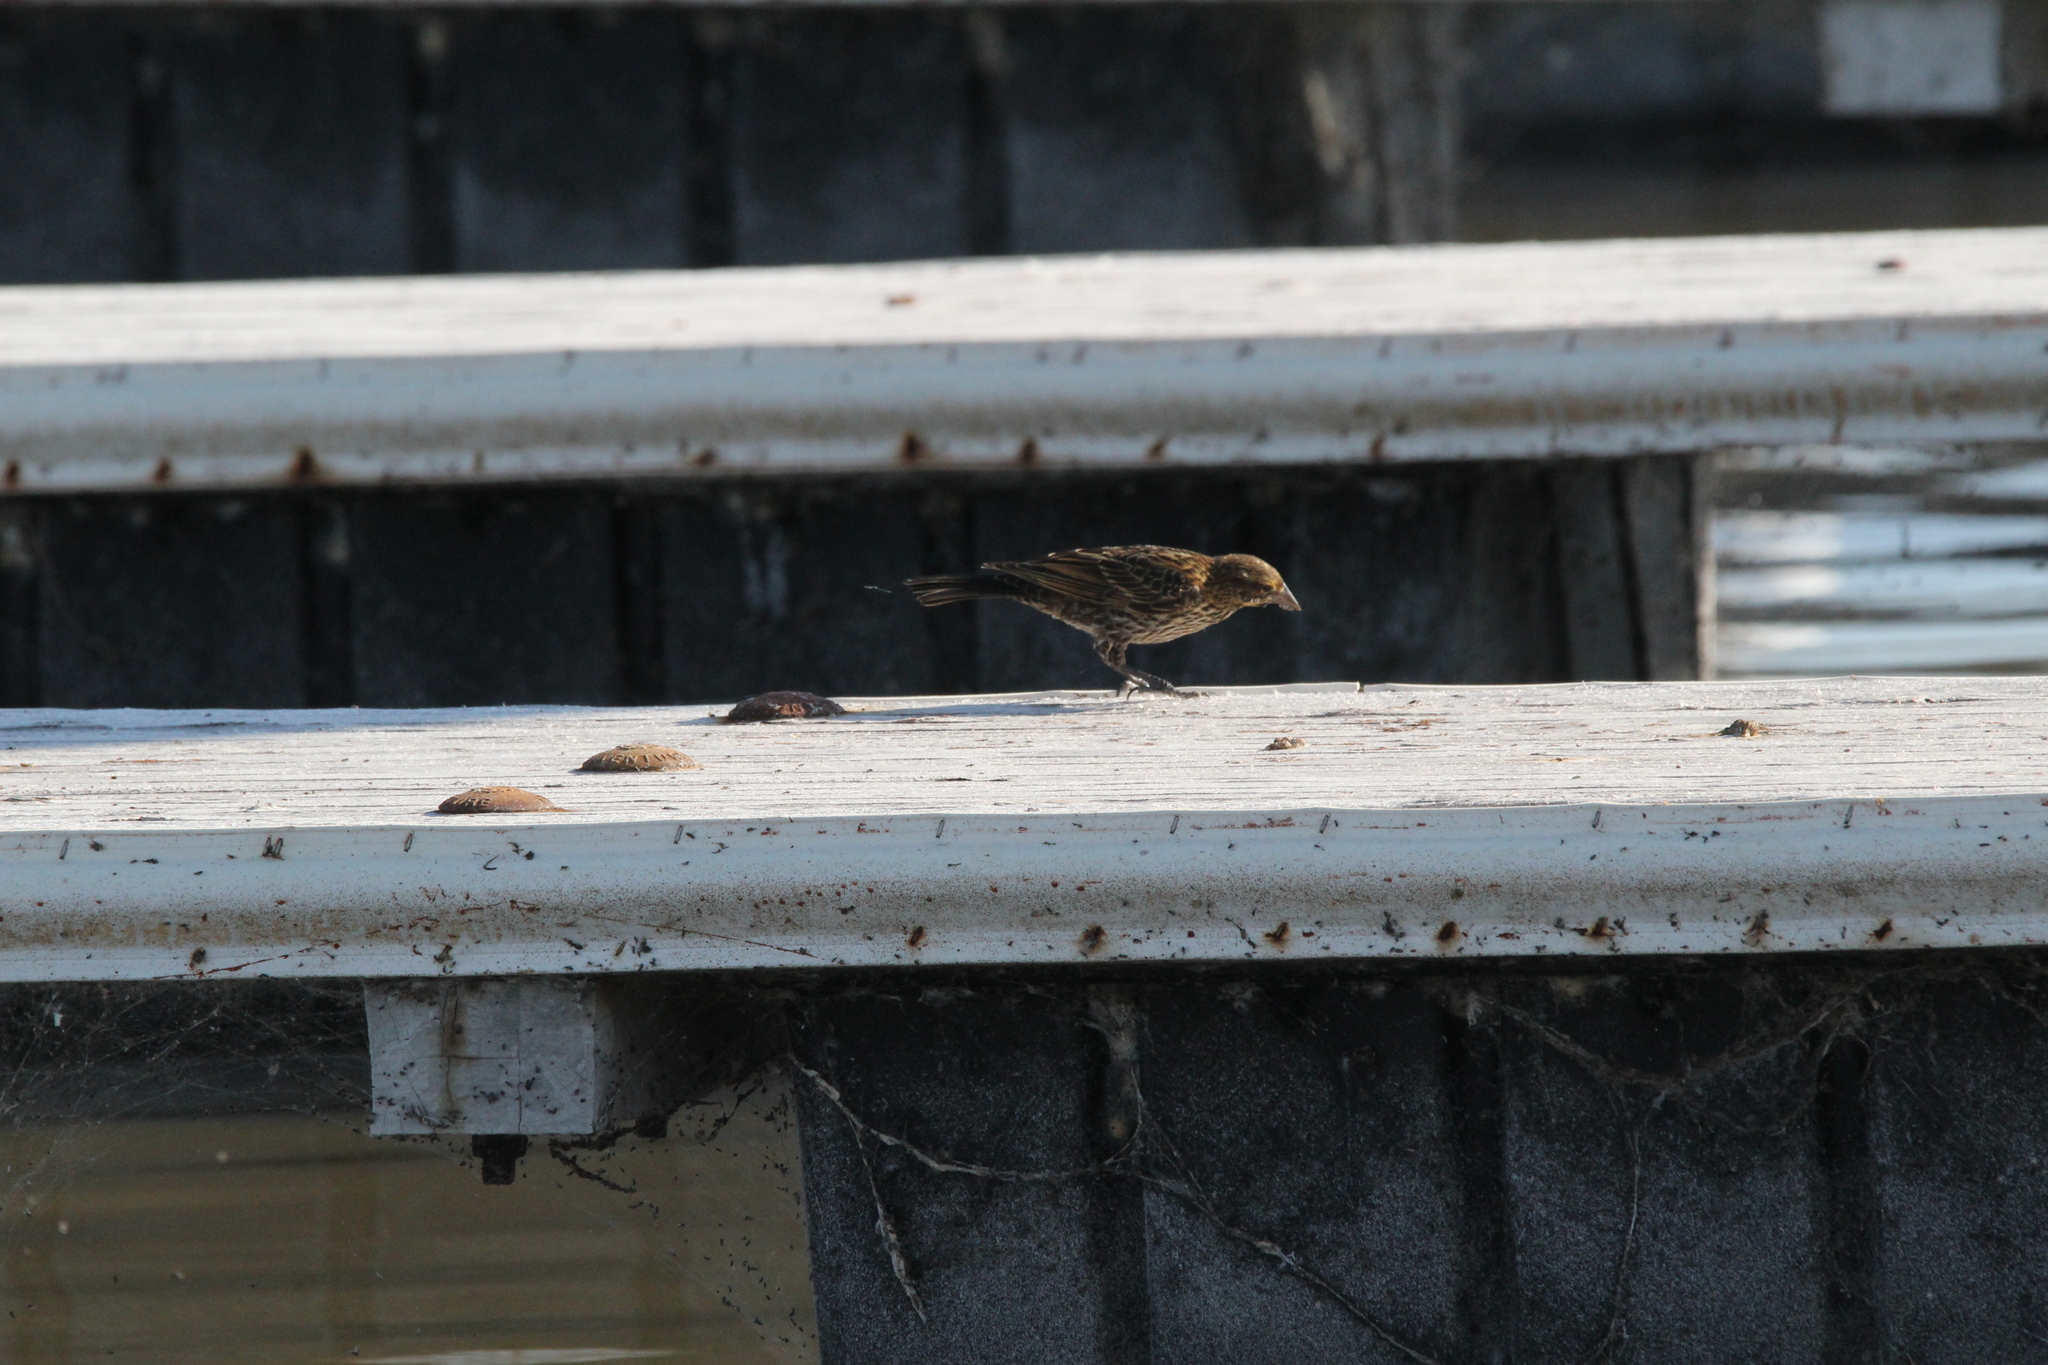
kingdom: Animalia
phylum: Chordata
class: Aves
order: Passeriformes
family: Icteridae
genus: Agelaius
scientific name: Agelaius phoeniceus
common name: Red-winged blackbird
